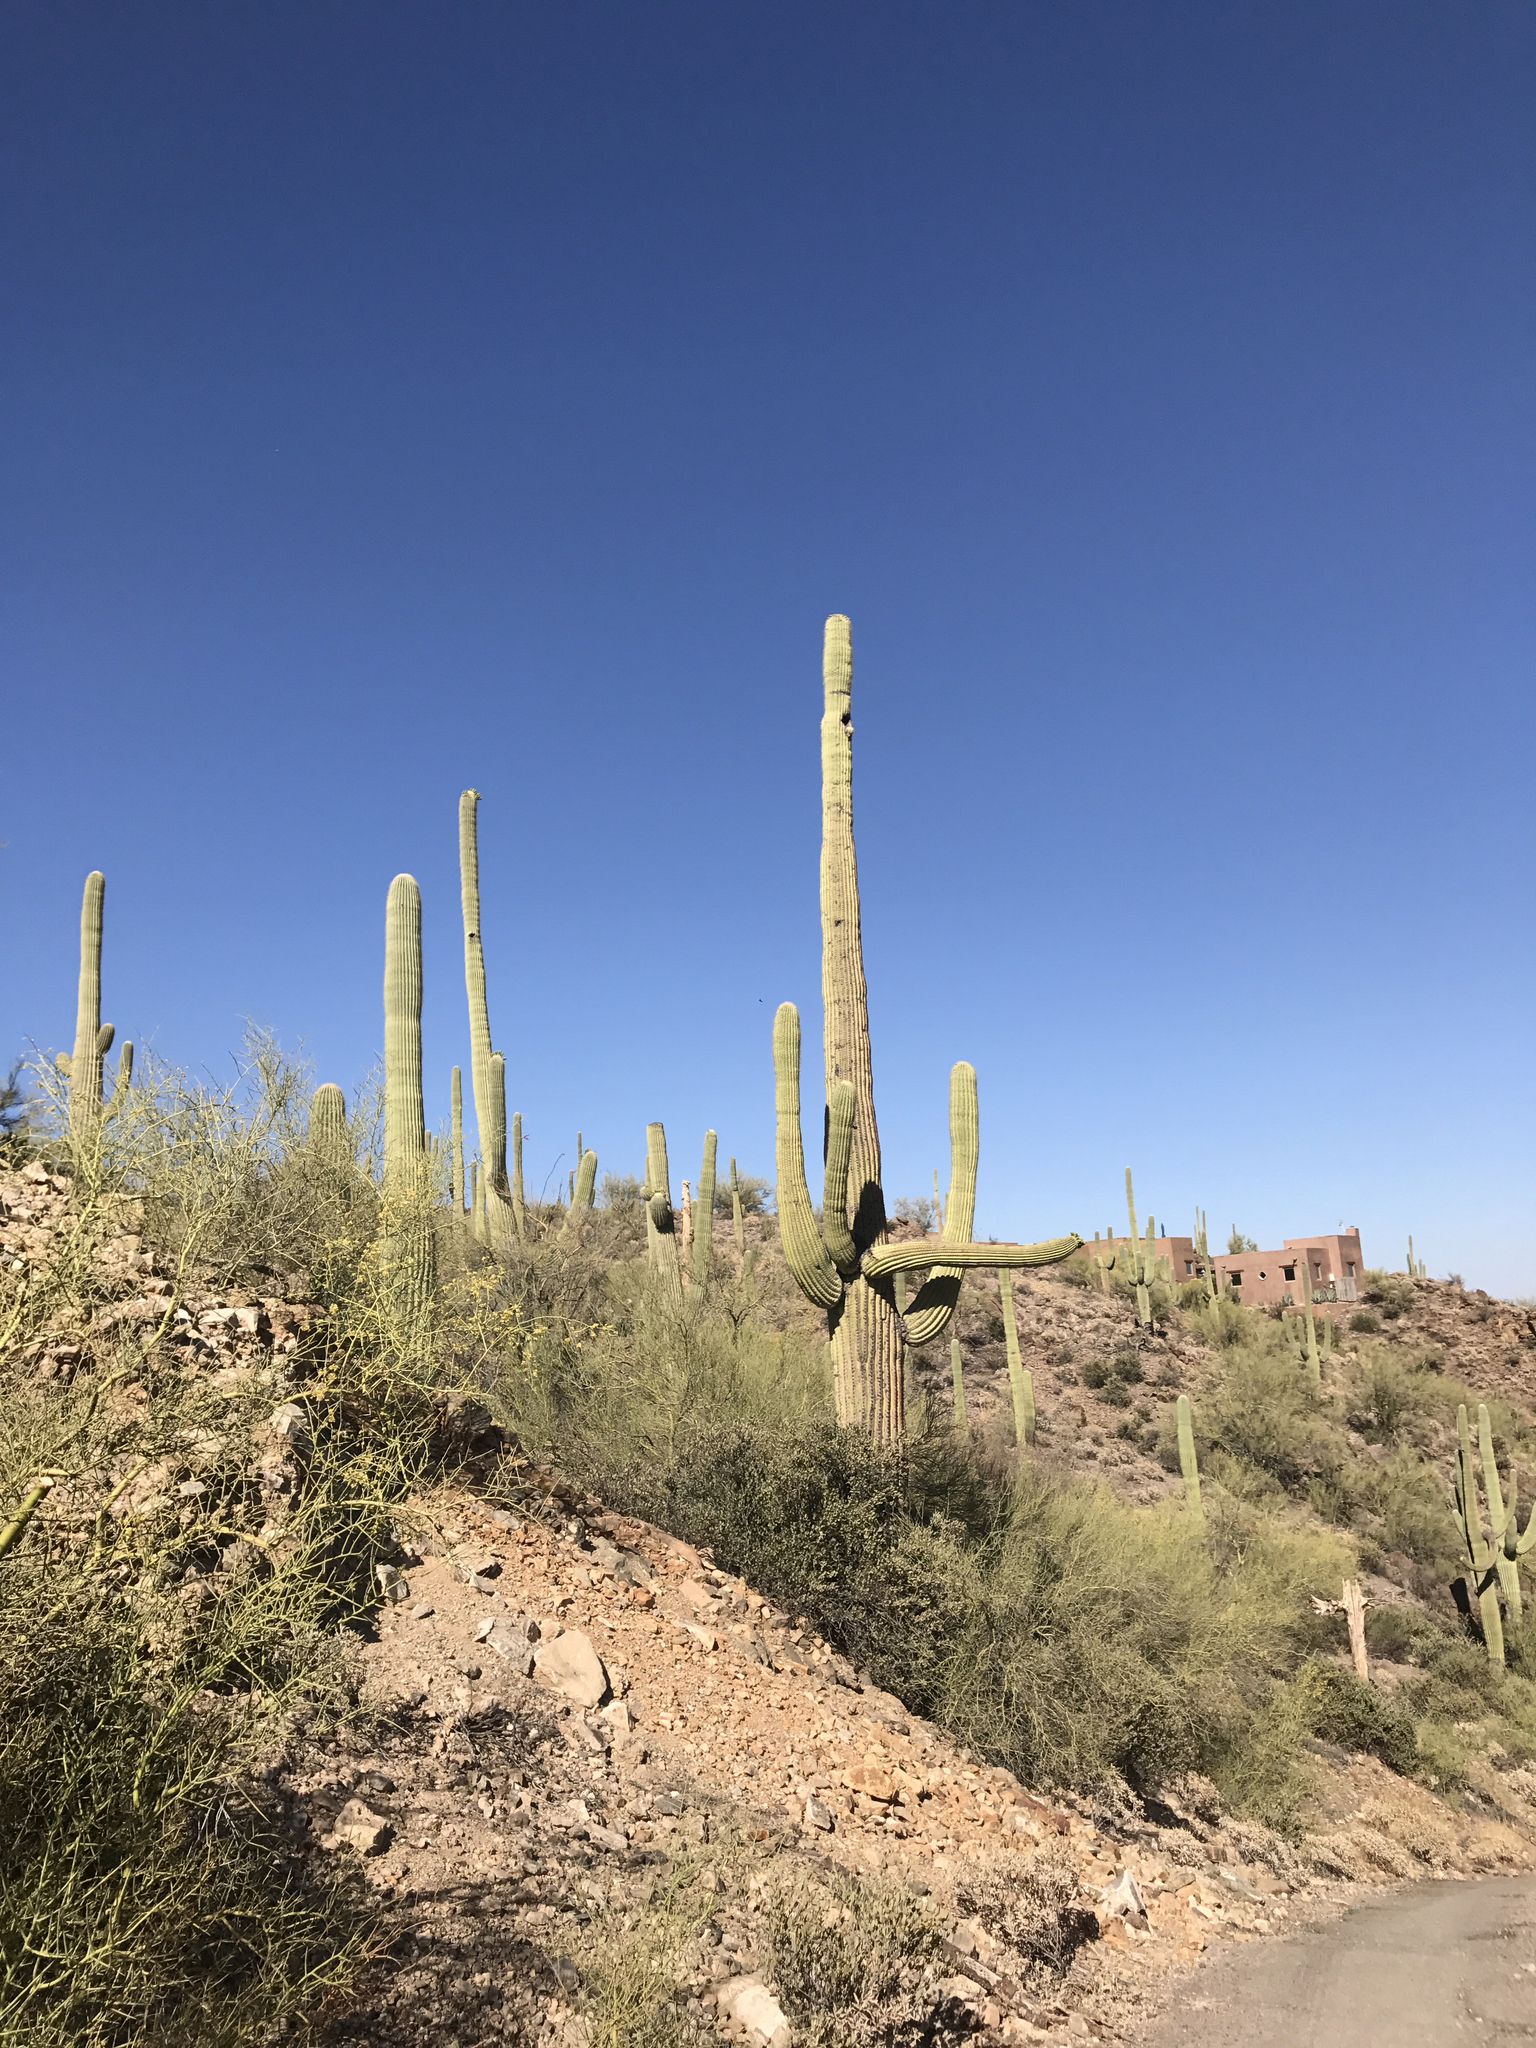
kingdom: Plantae
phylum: Tracheophyta
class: Magnoliopsida
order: Caryophyllales
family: Cactaceae
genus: Carnegiea
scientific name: Carnegiea gigantea
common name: Saguaro
